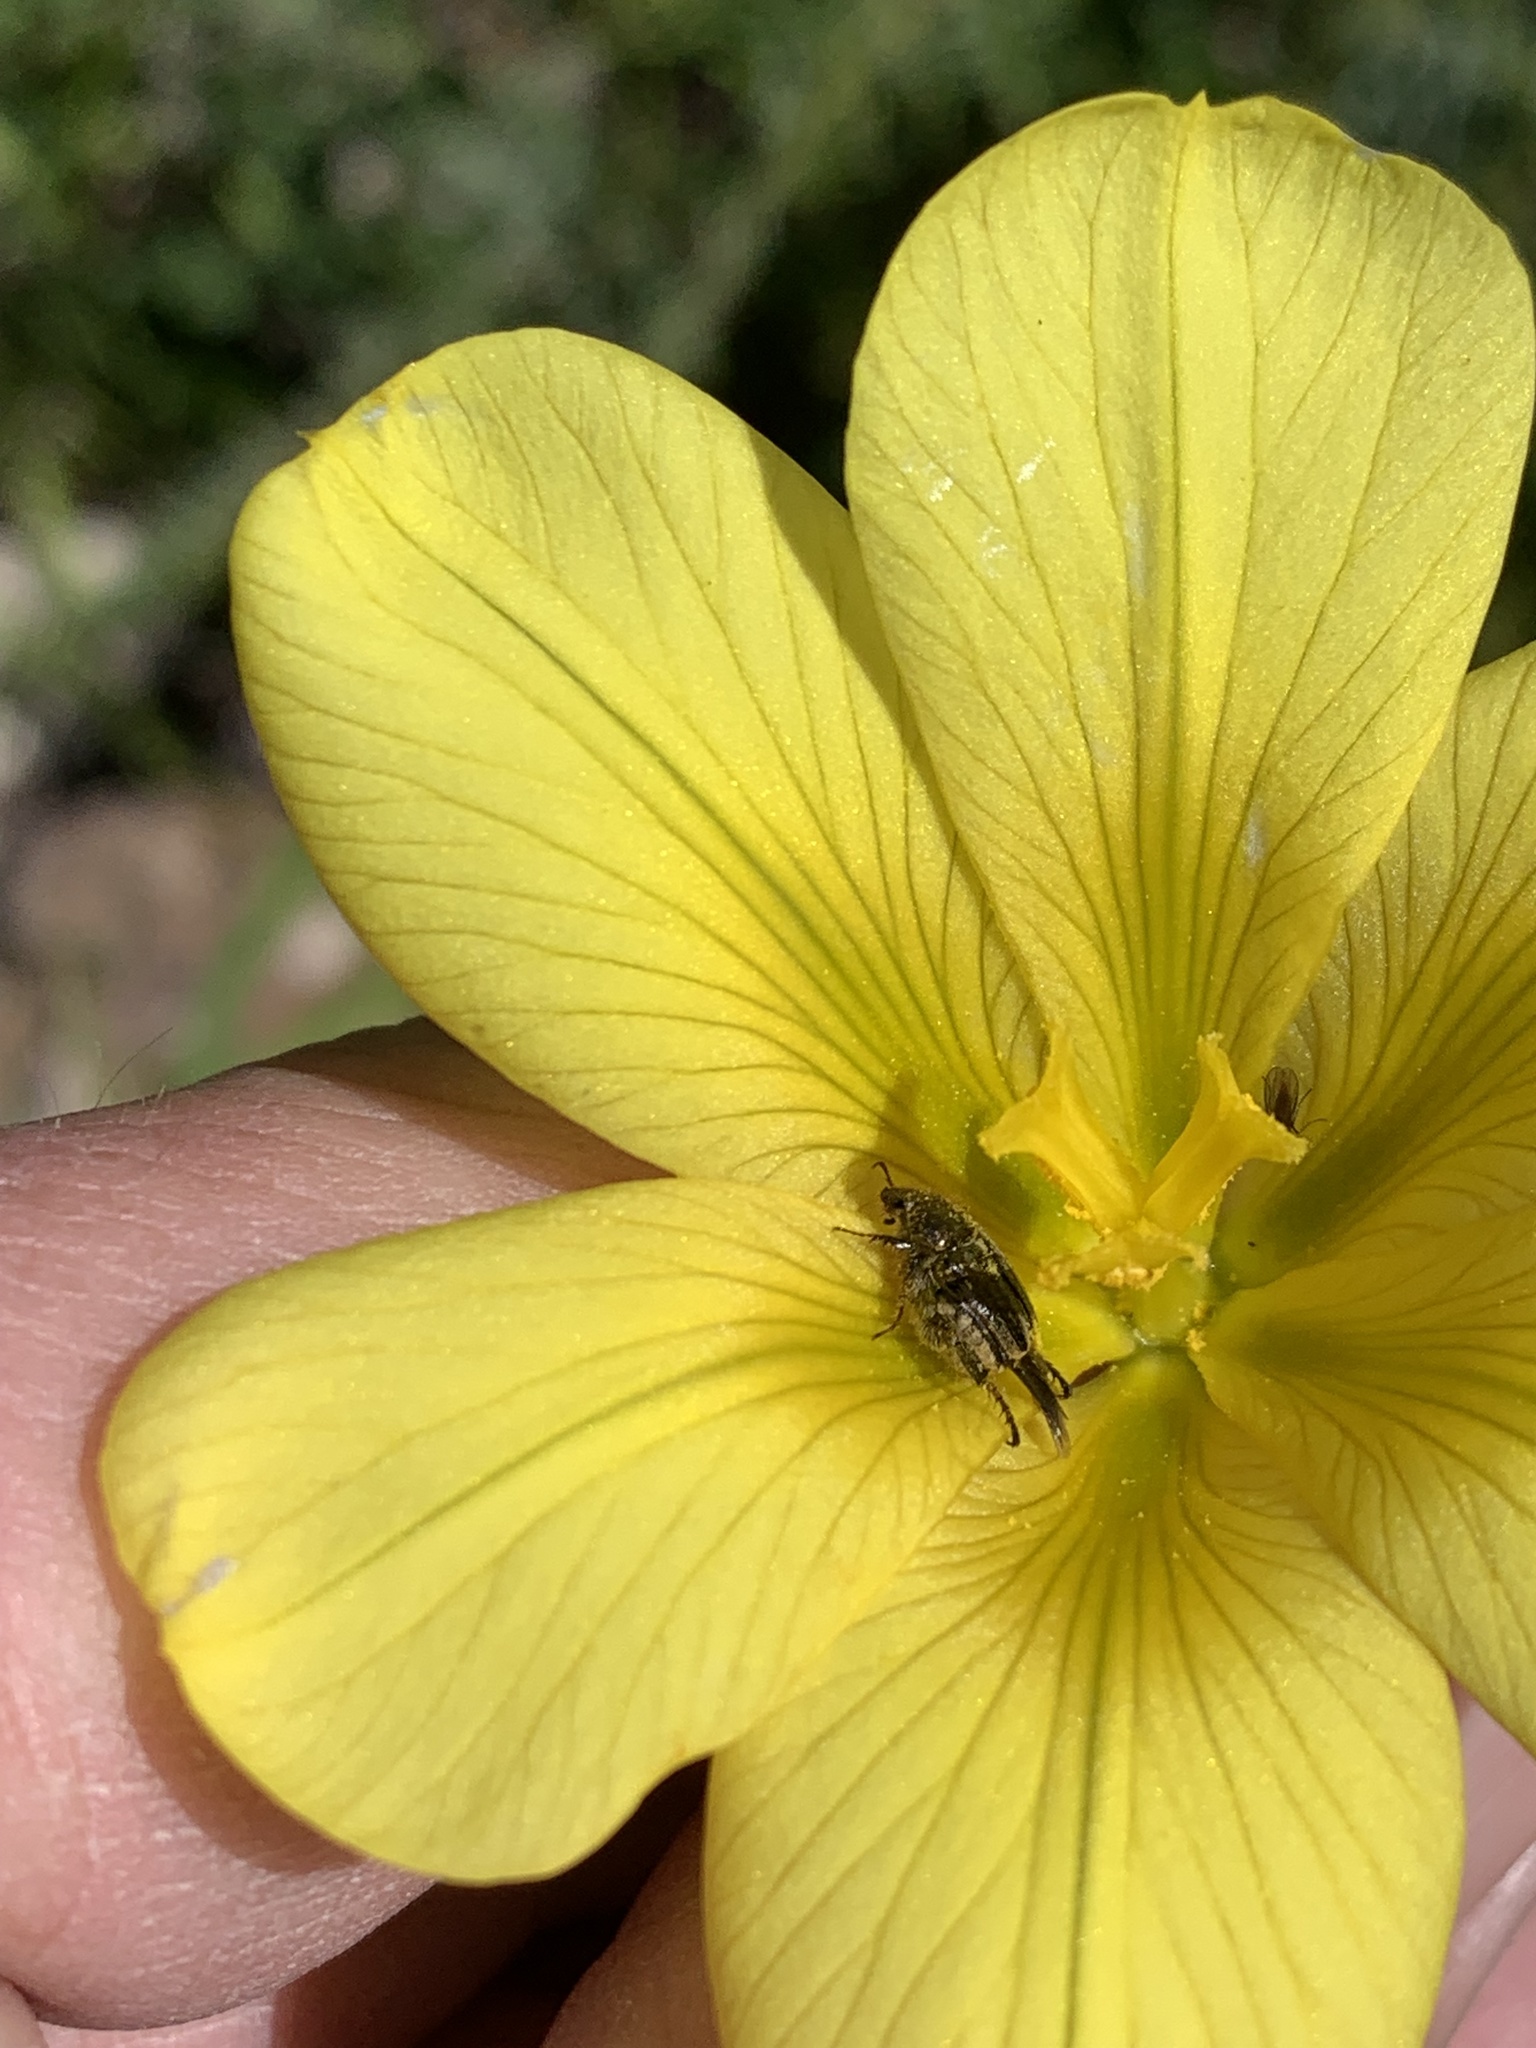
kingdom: Plantae
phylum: Tracheophyta
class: Liliopsida
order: Asparagales
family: Iridaceae
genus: Moraea
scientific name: Moraea ochroleuca
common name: Red tulp
